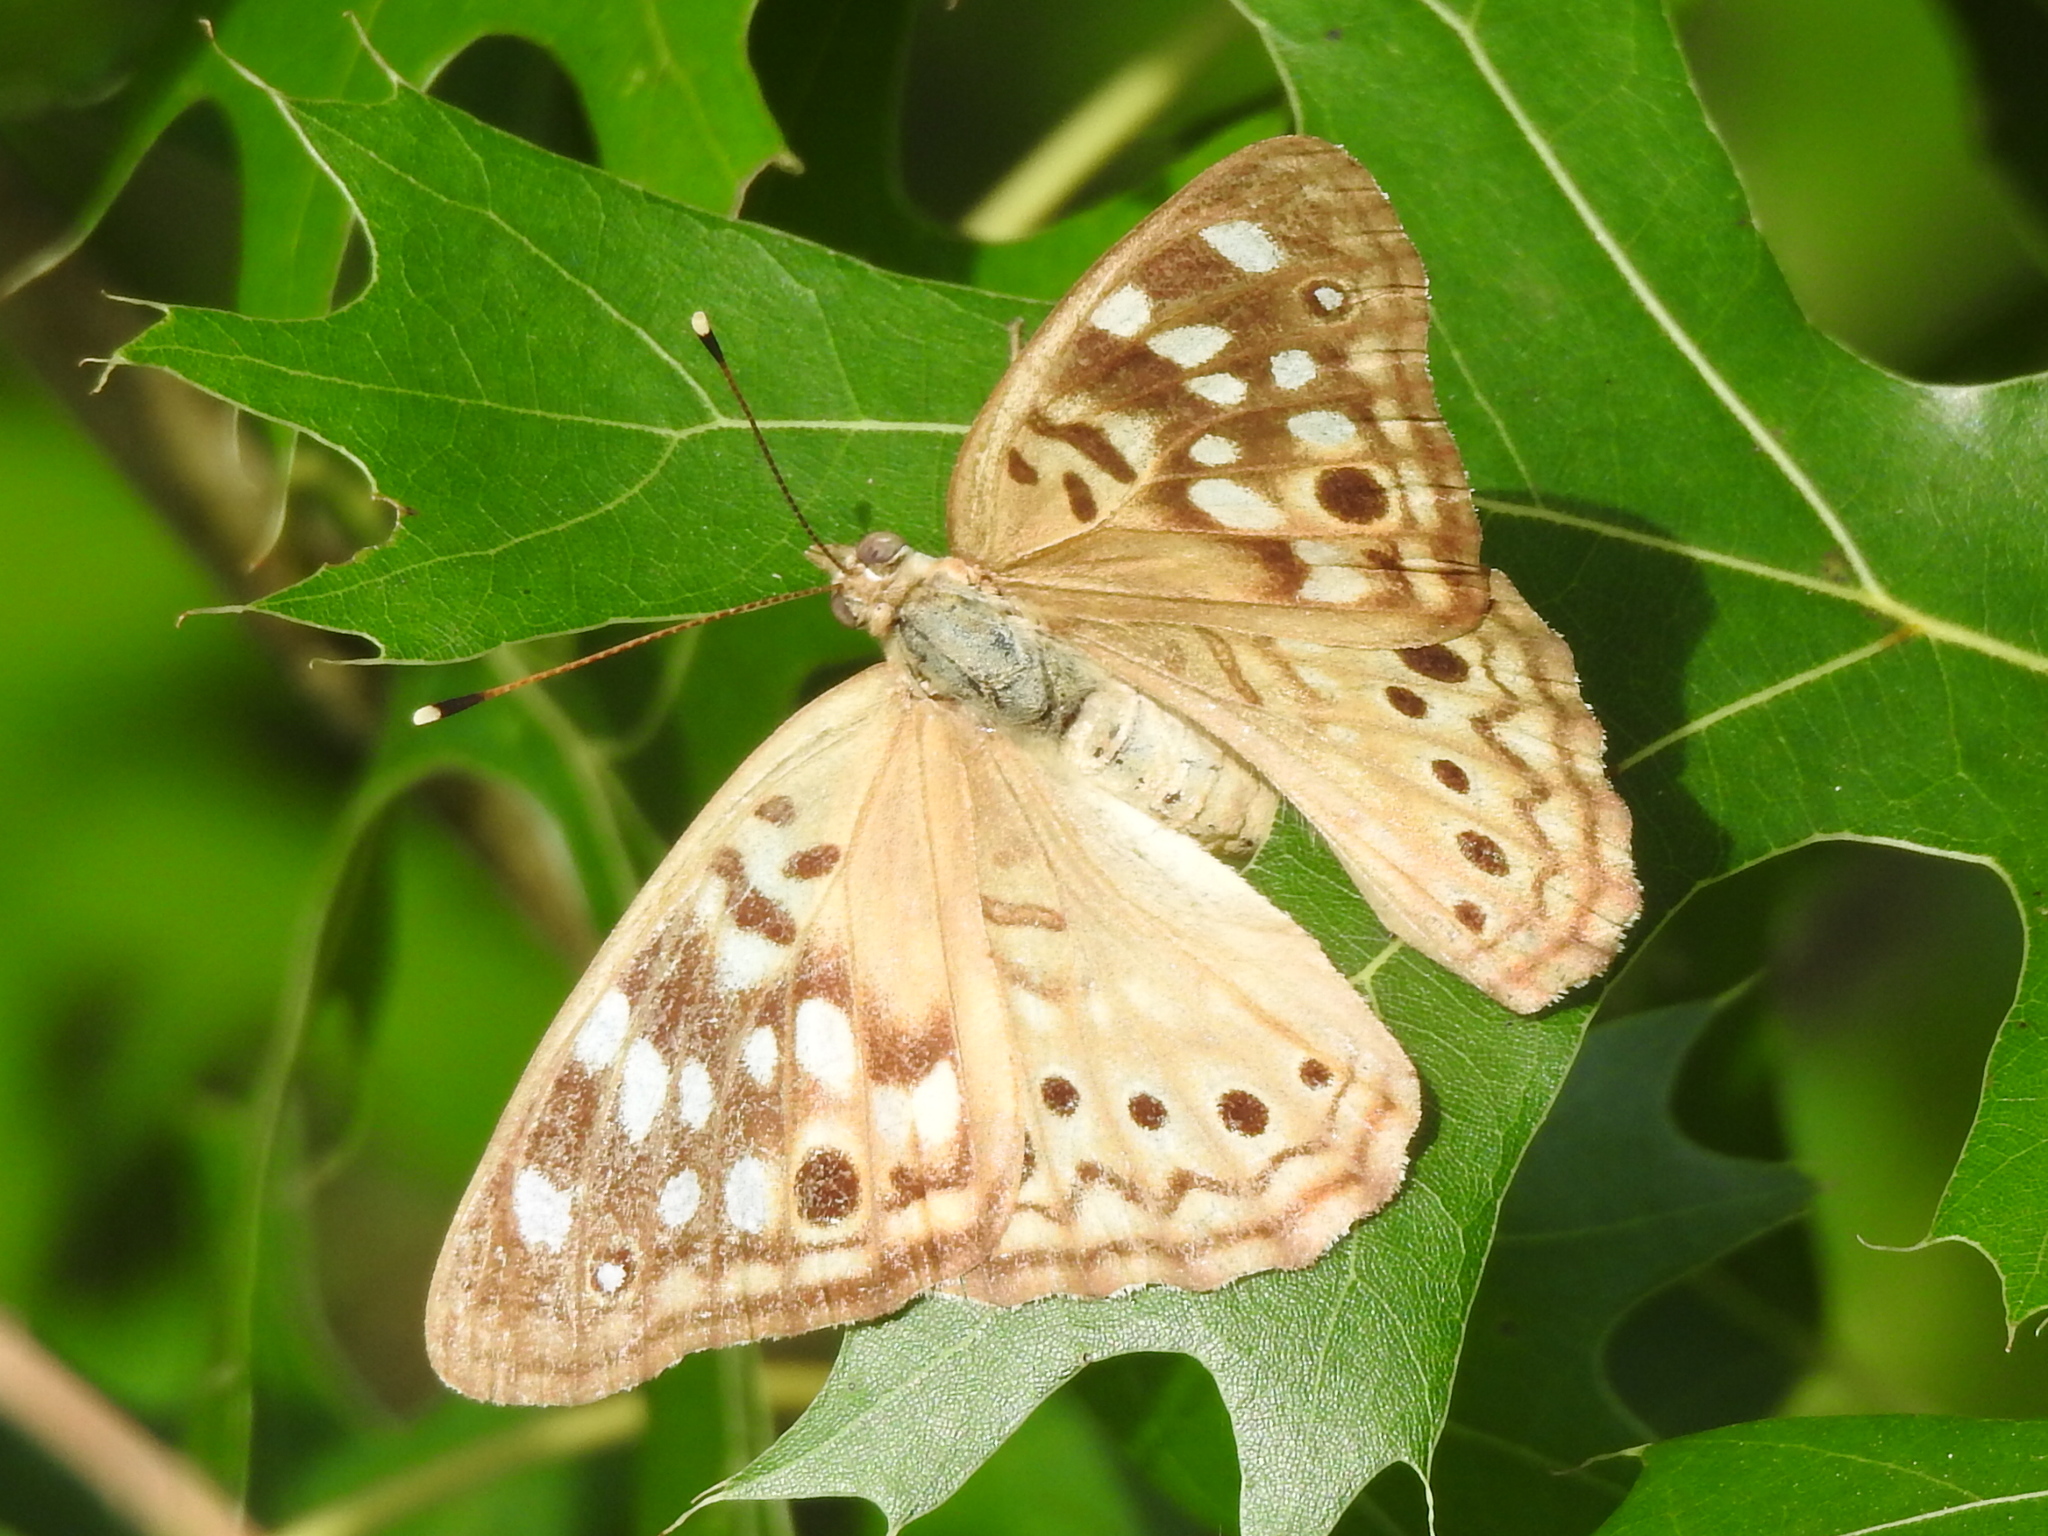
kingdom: Animalia
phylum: Arthropoda
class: Insecta
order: Lepidoptera
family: Nymphalidae
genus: Asterocampa
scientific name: Asterocampa celtis
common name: Hackberry emperor
